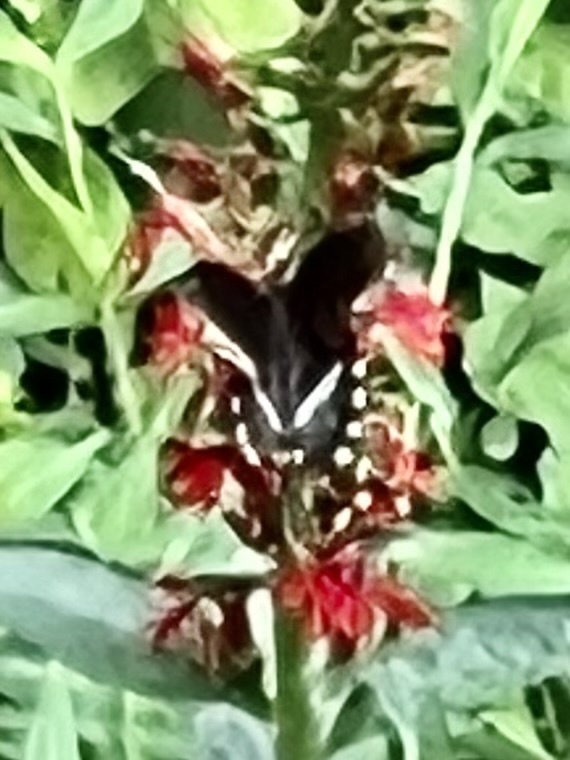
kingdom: Animalia
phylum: Arthropoda
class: Insecta
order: Lepidoptera
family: Papilionidae
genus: Papilio
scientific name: Papilio troilus
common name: Spicebush swallowtail
